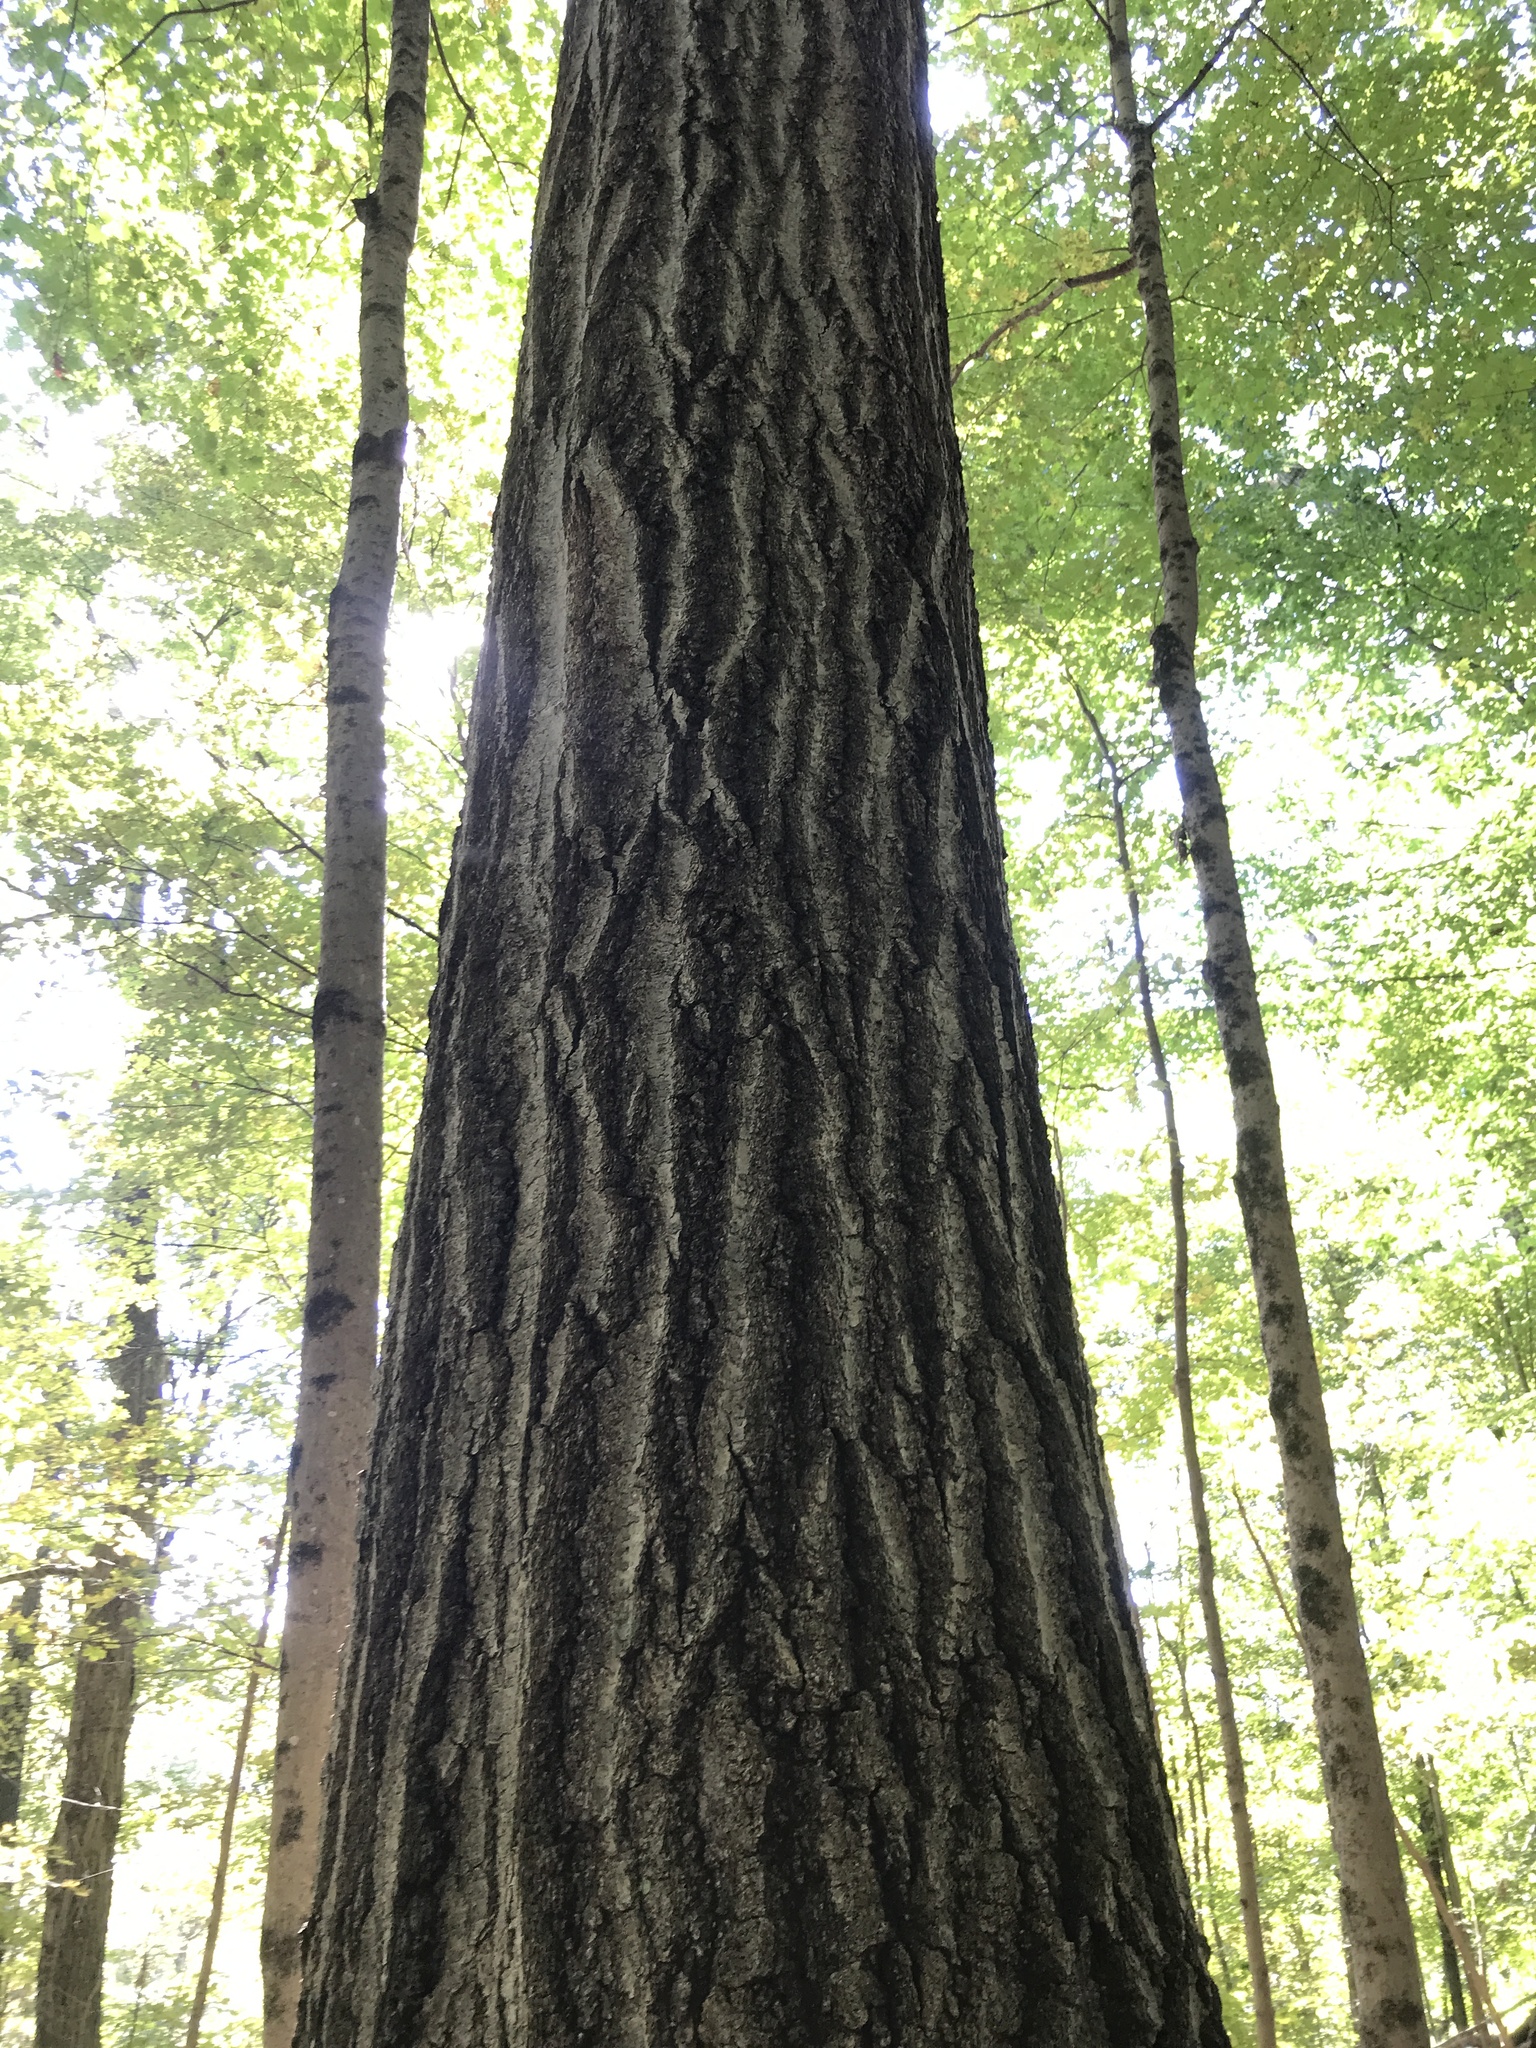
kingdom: Plantae
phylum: Tracheophyta
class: Magnoliopsida
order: Fagales
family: Fagaceae
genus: Quercus
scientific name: Quercus rubra
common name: Red oak
